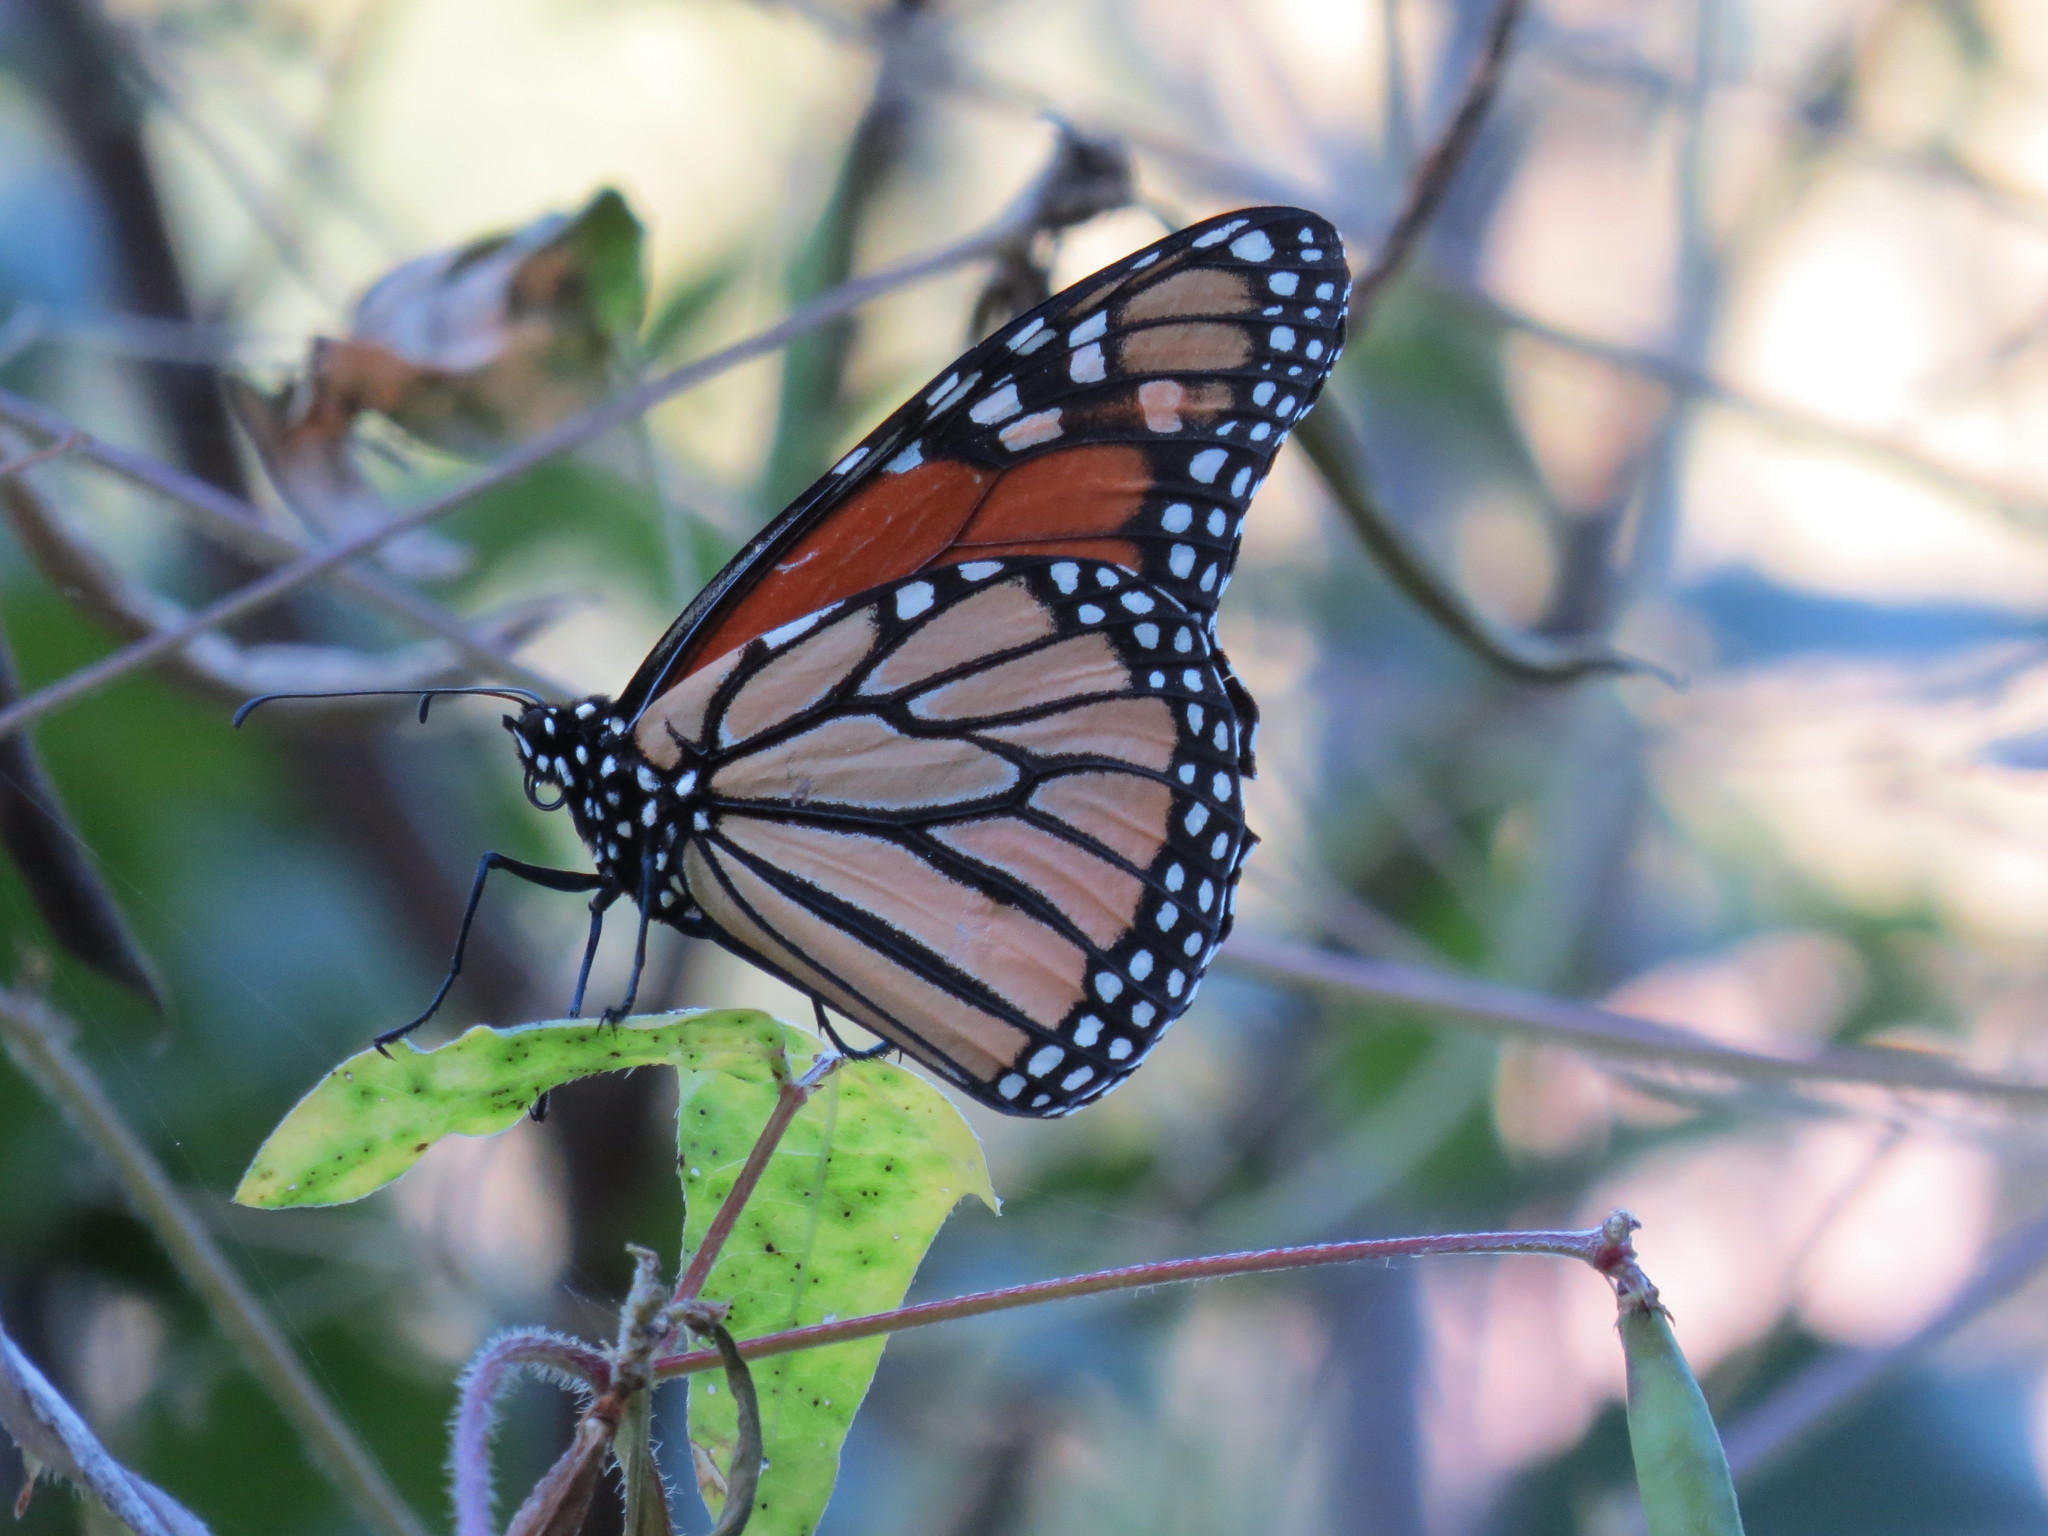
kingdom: Animalia
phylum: Arthropoda
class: Insecta
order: Lepidoptera
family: Nymphalidae
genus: Danaus
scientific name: Danaus plexippus
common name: Monarch
